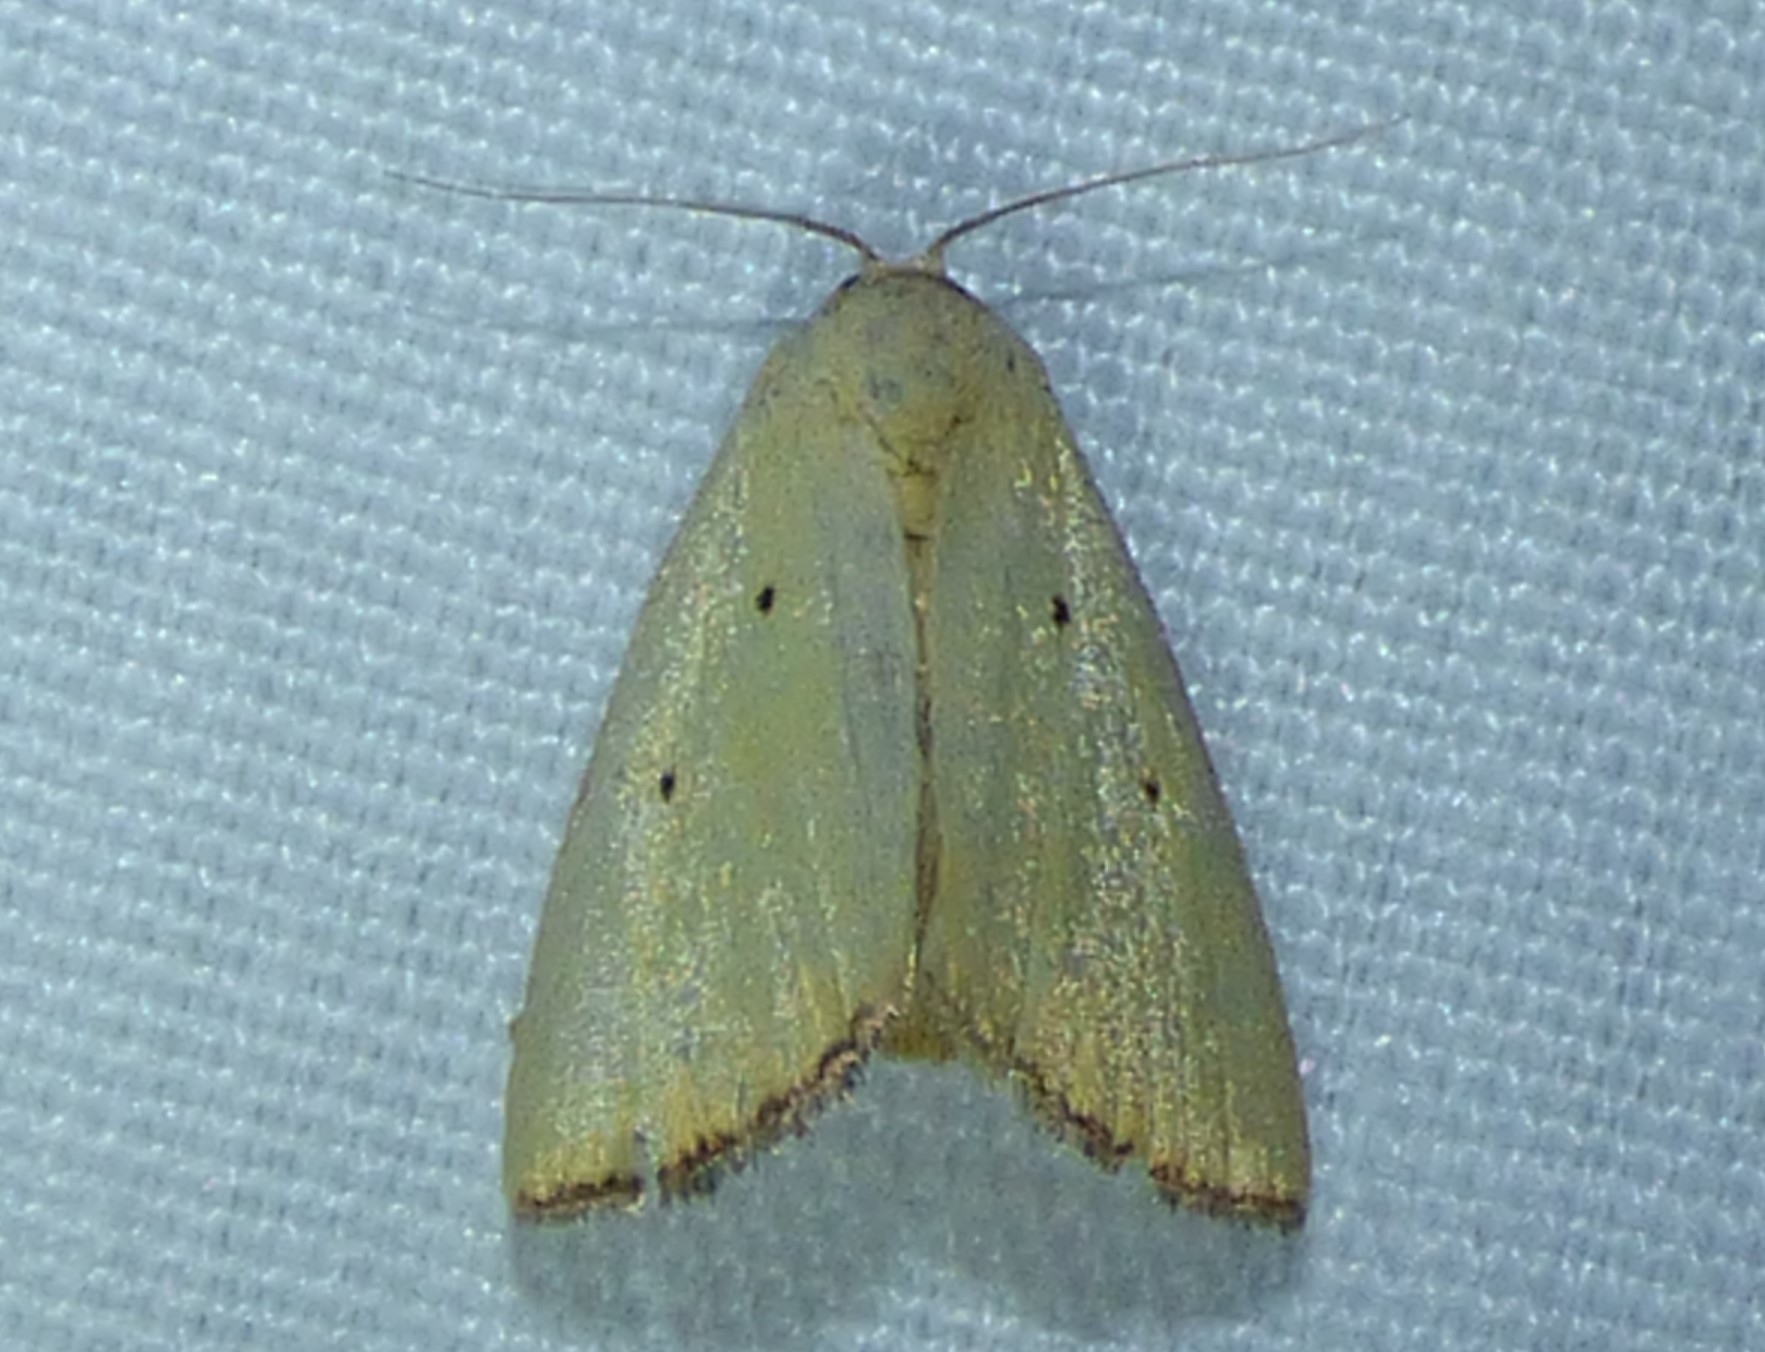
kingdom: Animalia
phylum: Arthropoda
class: Insecta
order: Lepidoptera
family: Noctuidae
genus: Marimatha
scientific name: Marimatha nigrofimbria
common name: Black-bordered lemon moth
